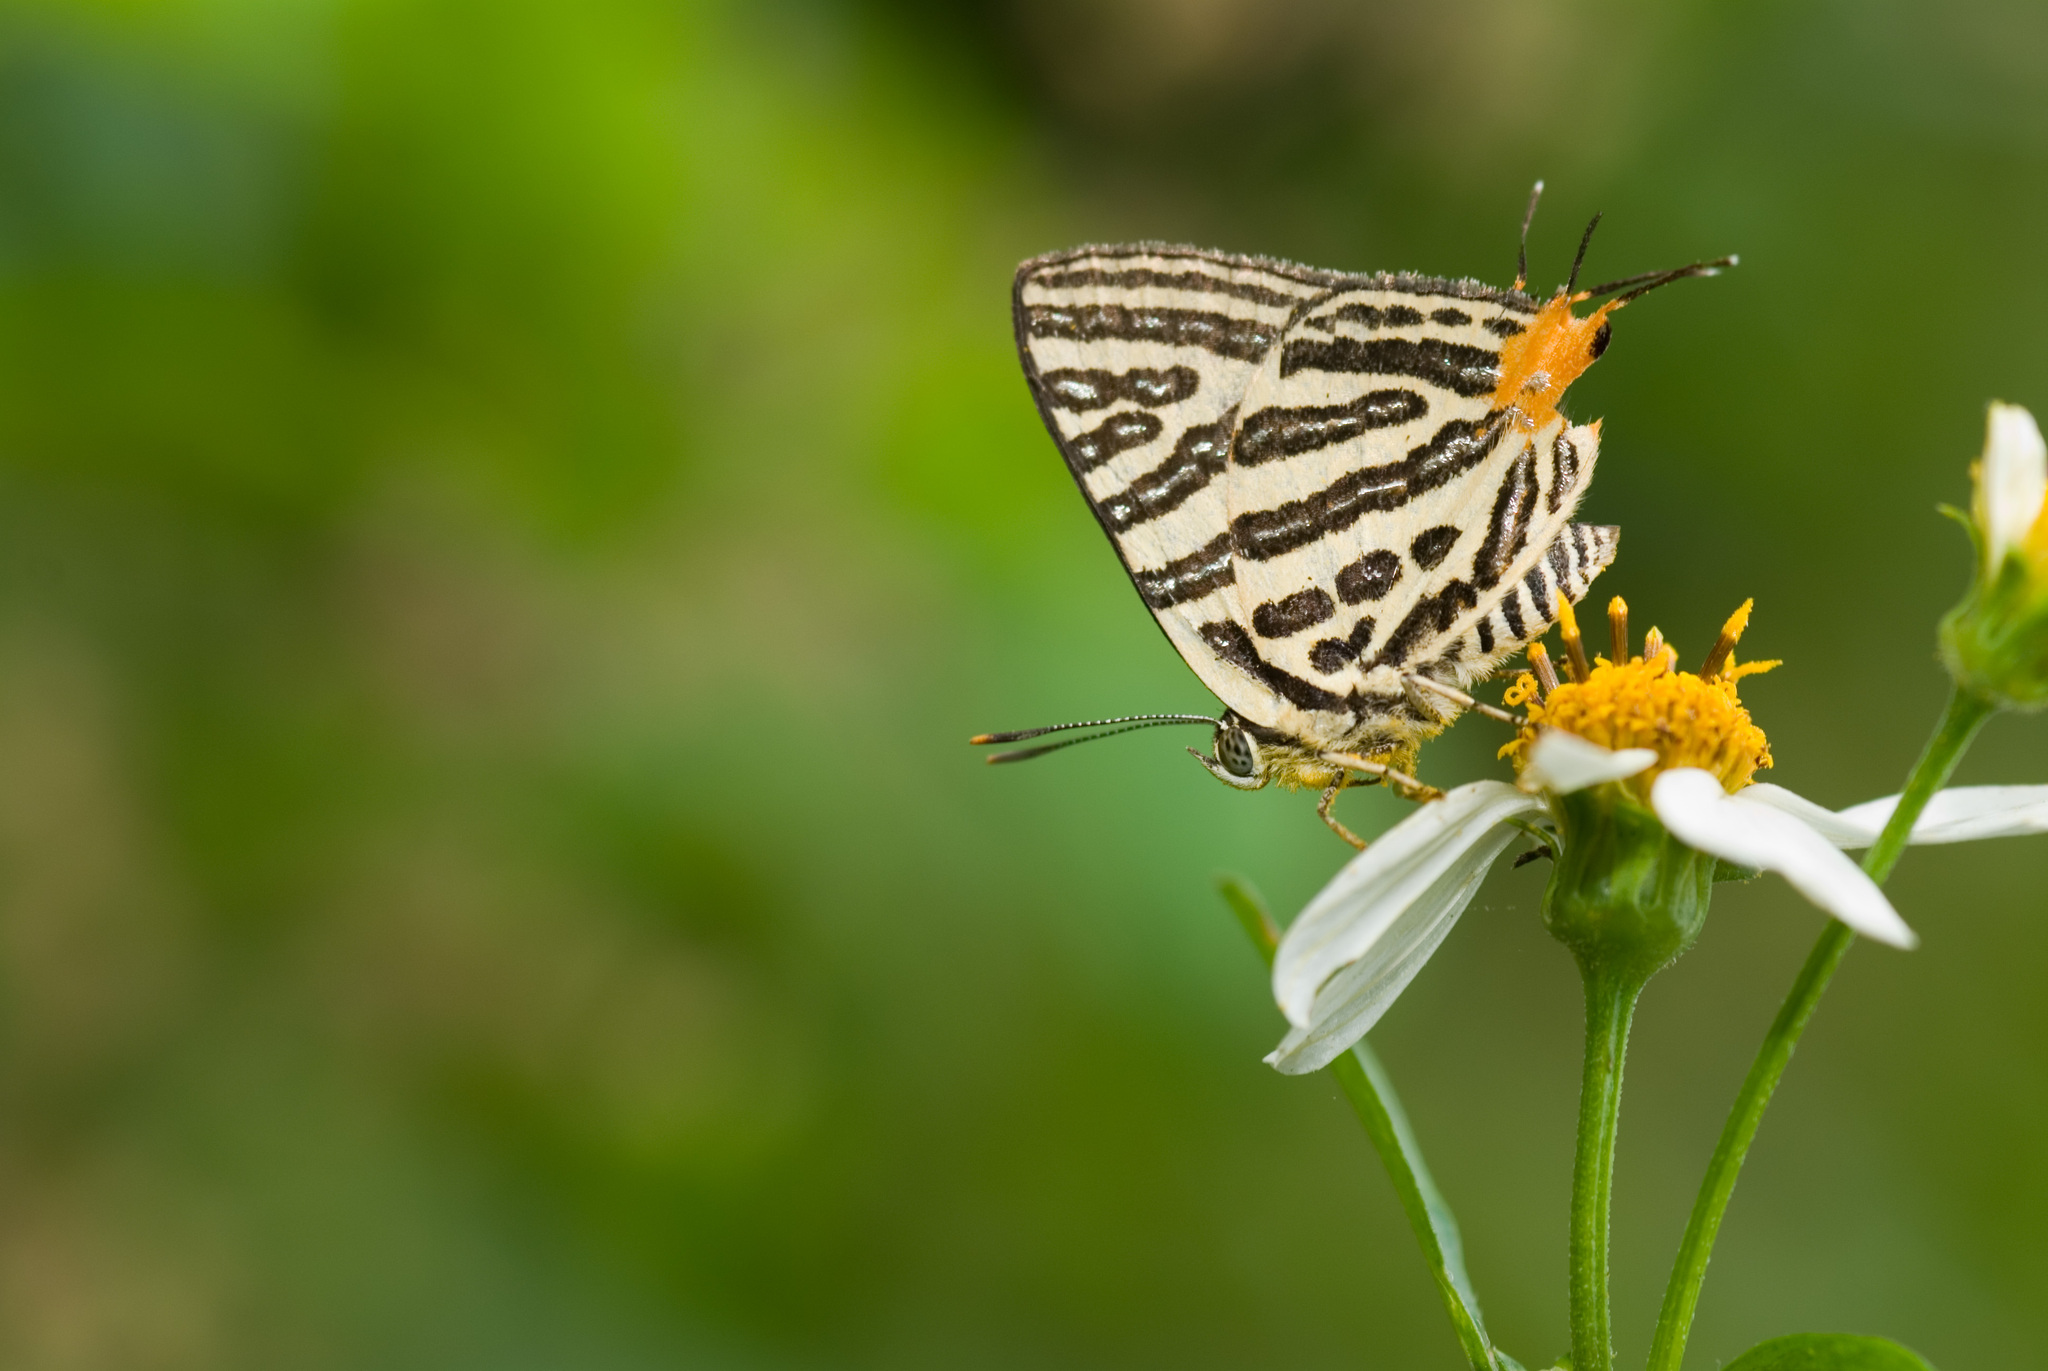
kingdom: Animalia
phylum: Arthropoda
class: Insecta
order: Lepidoptera
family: Lycaenidae
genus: Cigaritis
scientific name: Cigaritis syama
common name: Club silverline
